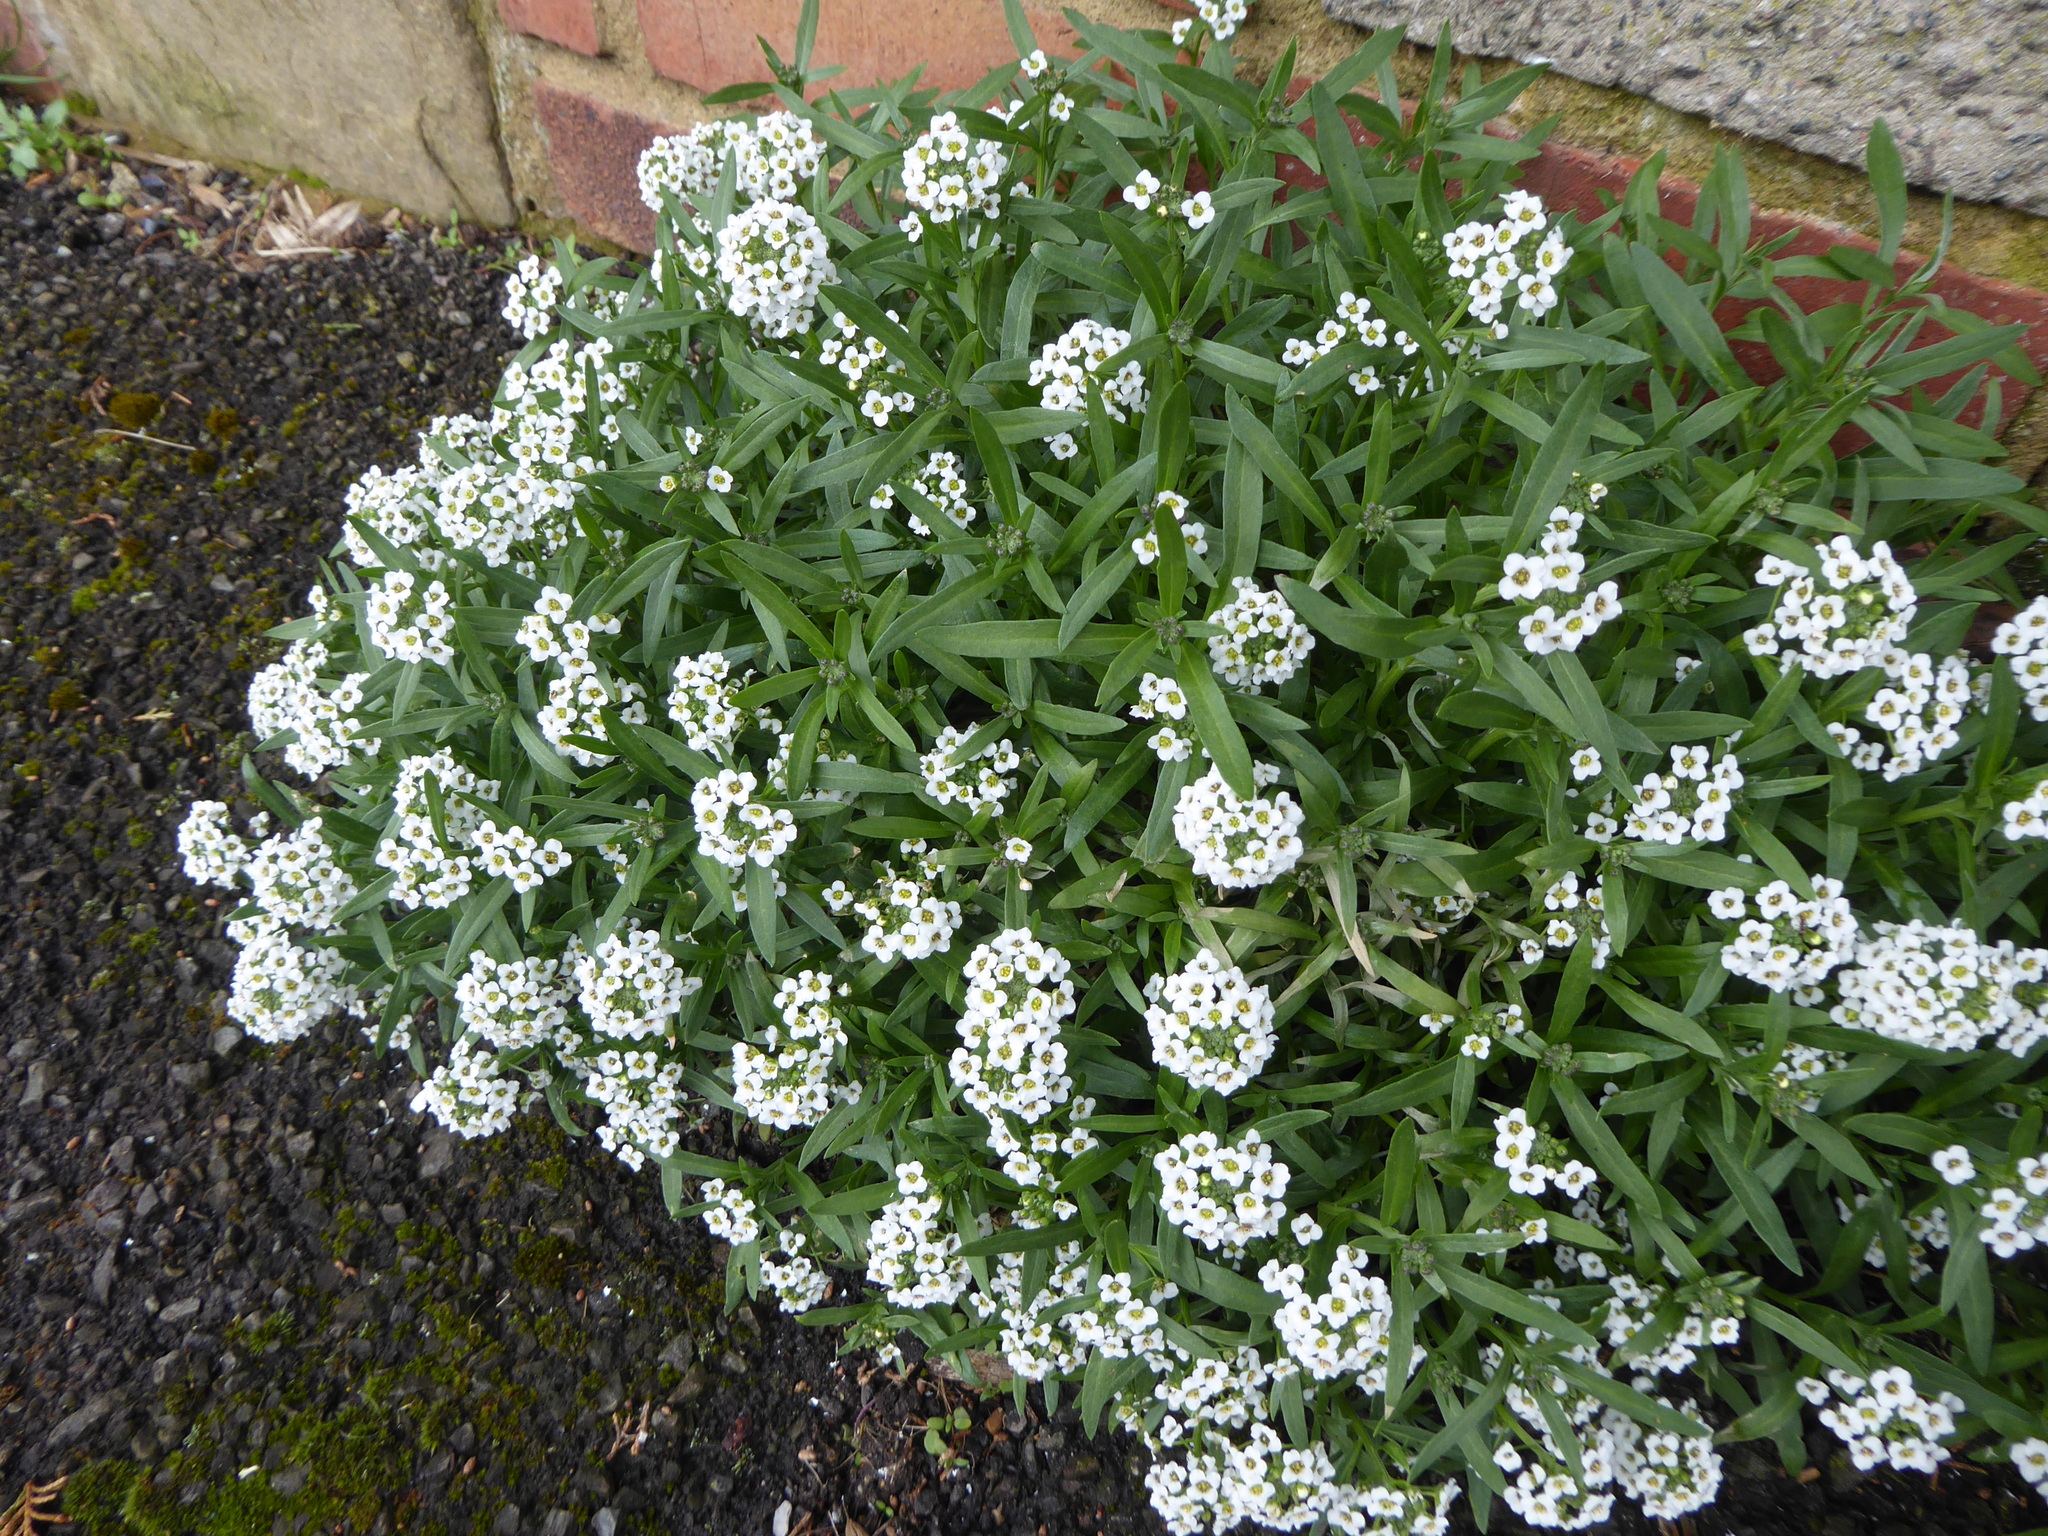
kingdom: Plantae
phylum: Tracheophyta
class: Magnoliopsida
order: Brassicales
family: Brassicaceae
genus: Lobularia
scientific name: Lobularia maritima
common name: Sweet alison
